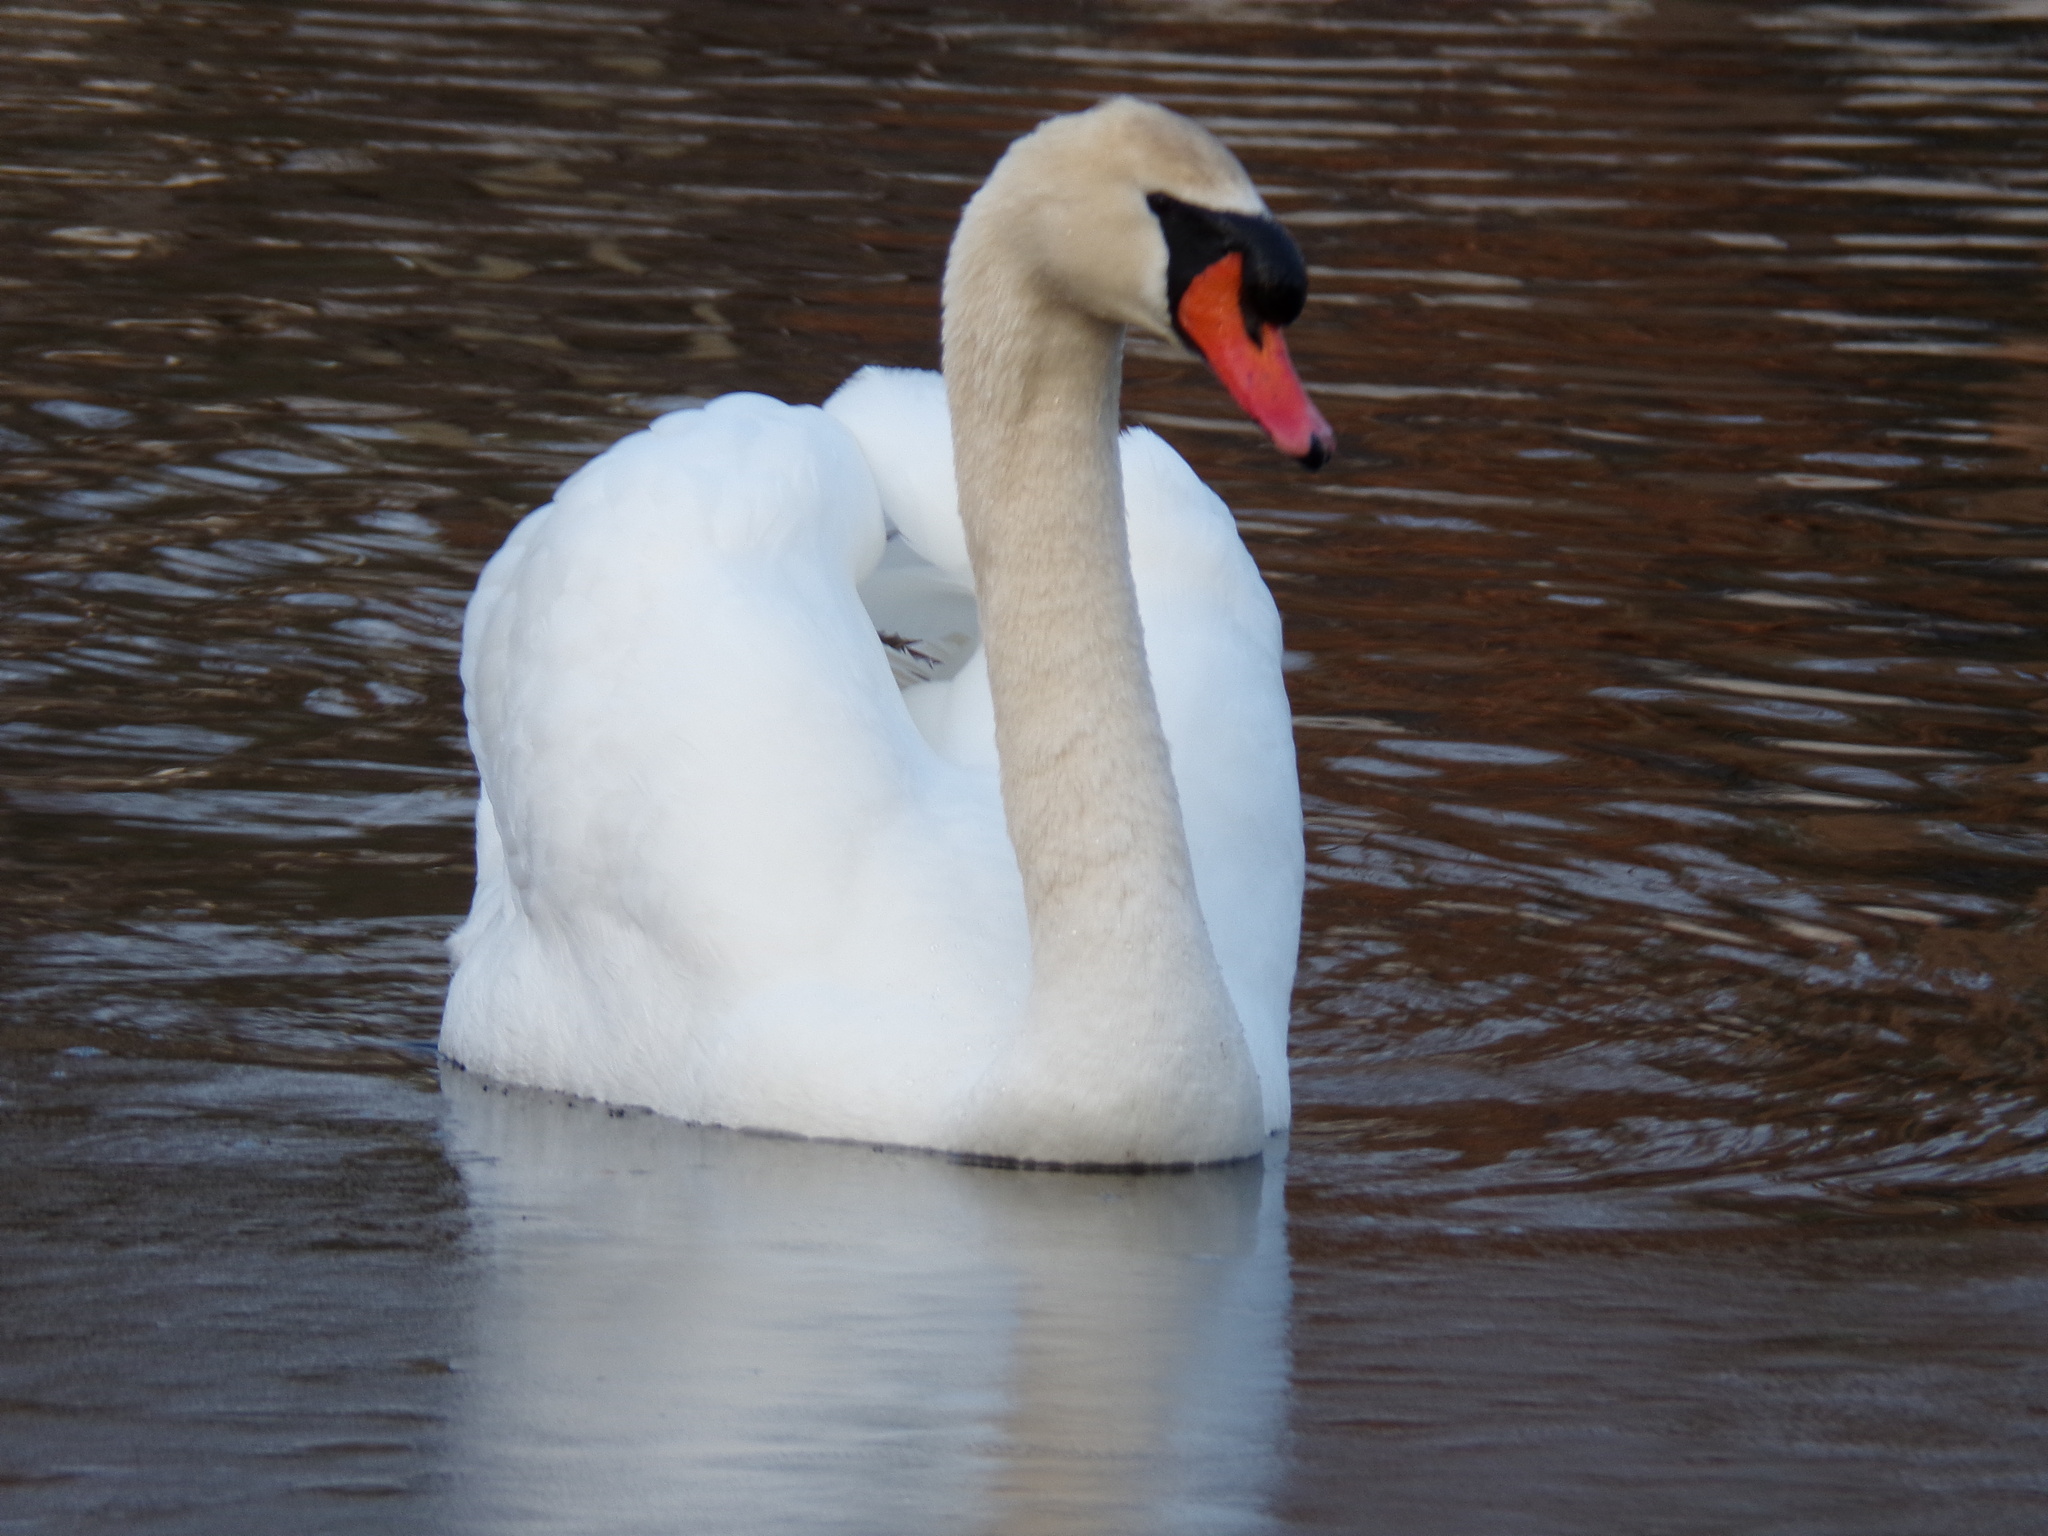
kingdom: Animalia
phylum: Chordata
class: Aves
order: Anseriformes
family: Anatidae
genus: Cygnus
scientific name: Cygnus olor
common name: Mute swan
